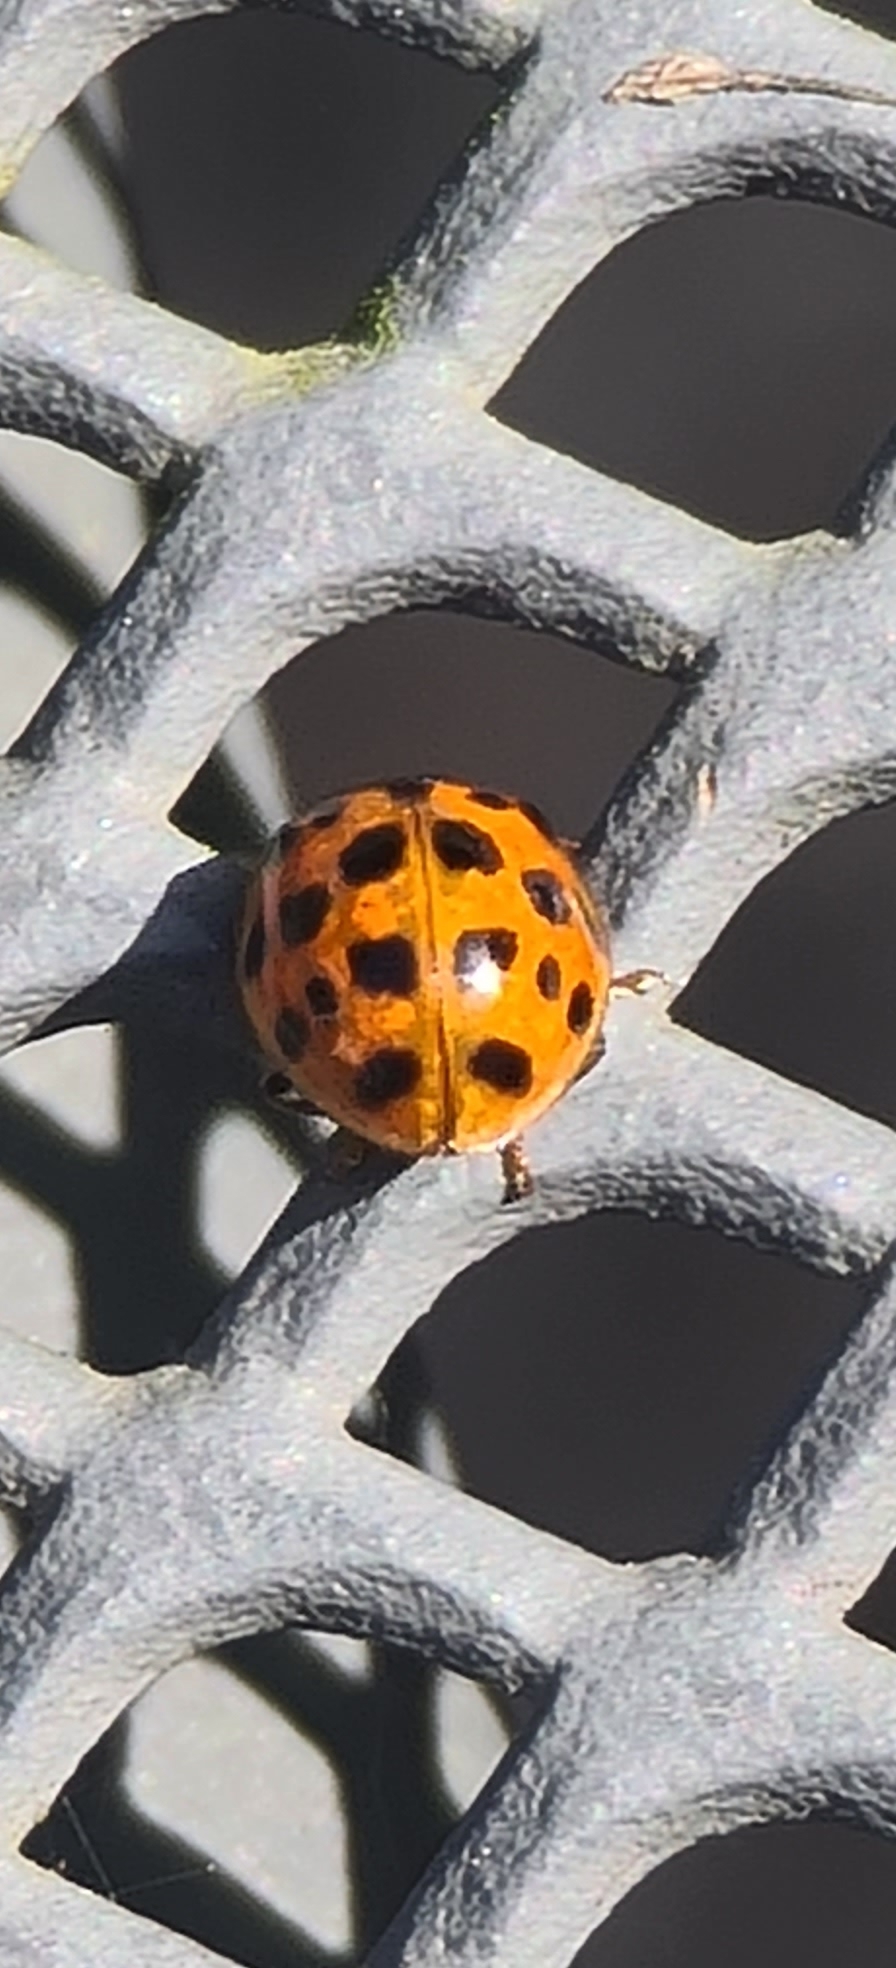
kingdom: Animalia
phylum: Arthropoda
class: Insecta
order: Coleoptera
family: Coccinellidae
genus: Harmonia
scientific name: Harmonia axyridis
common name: Harlequin ladybird
